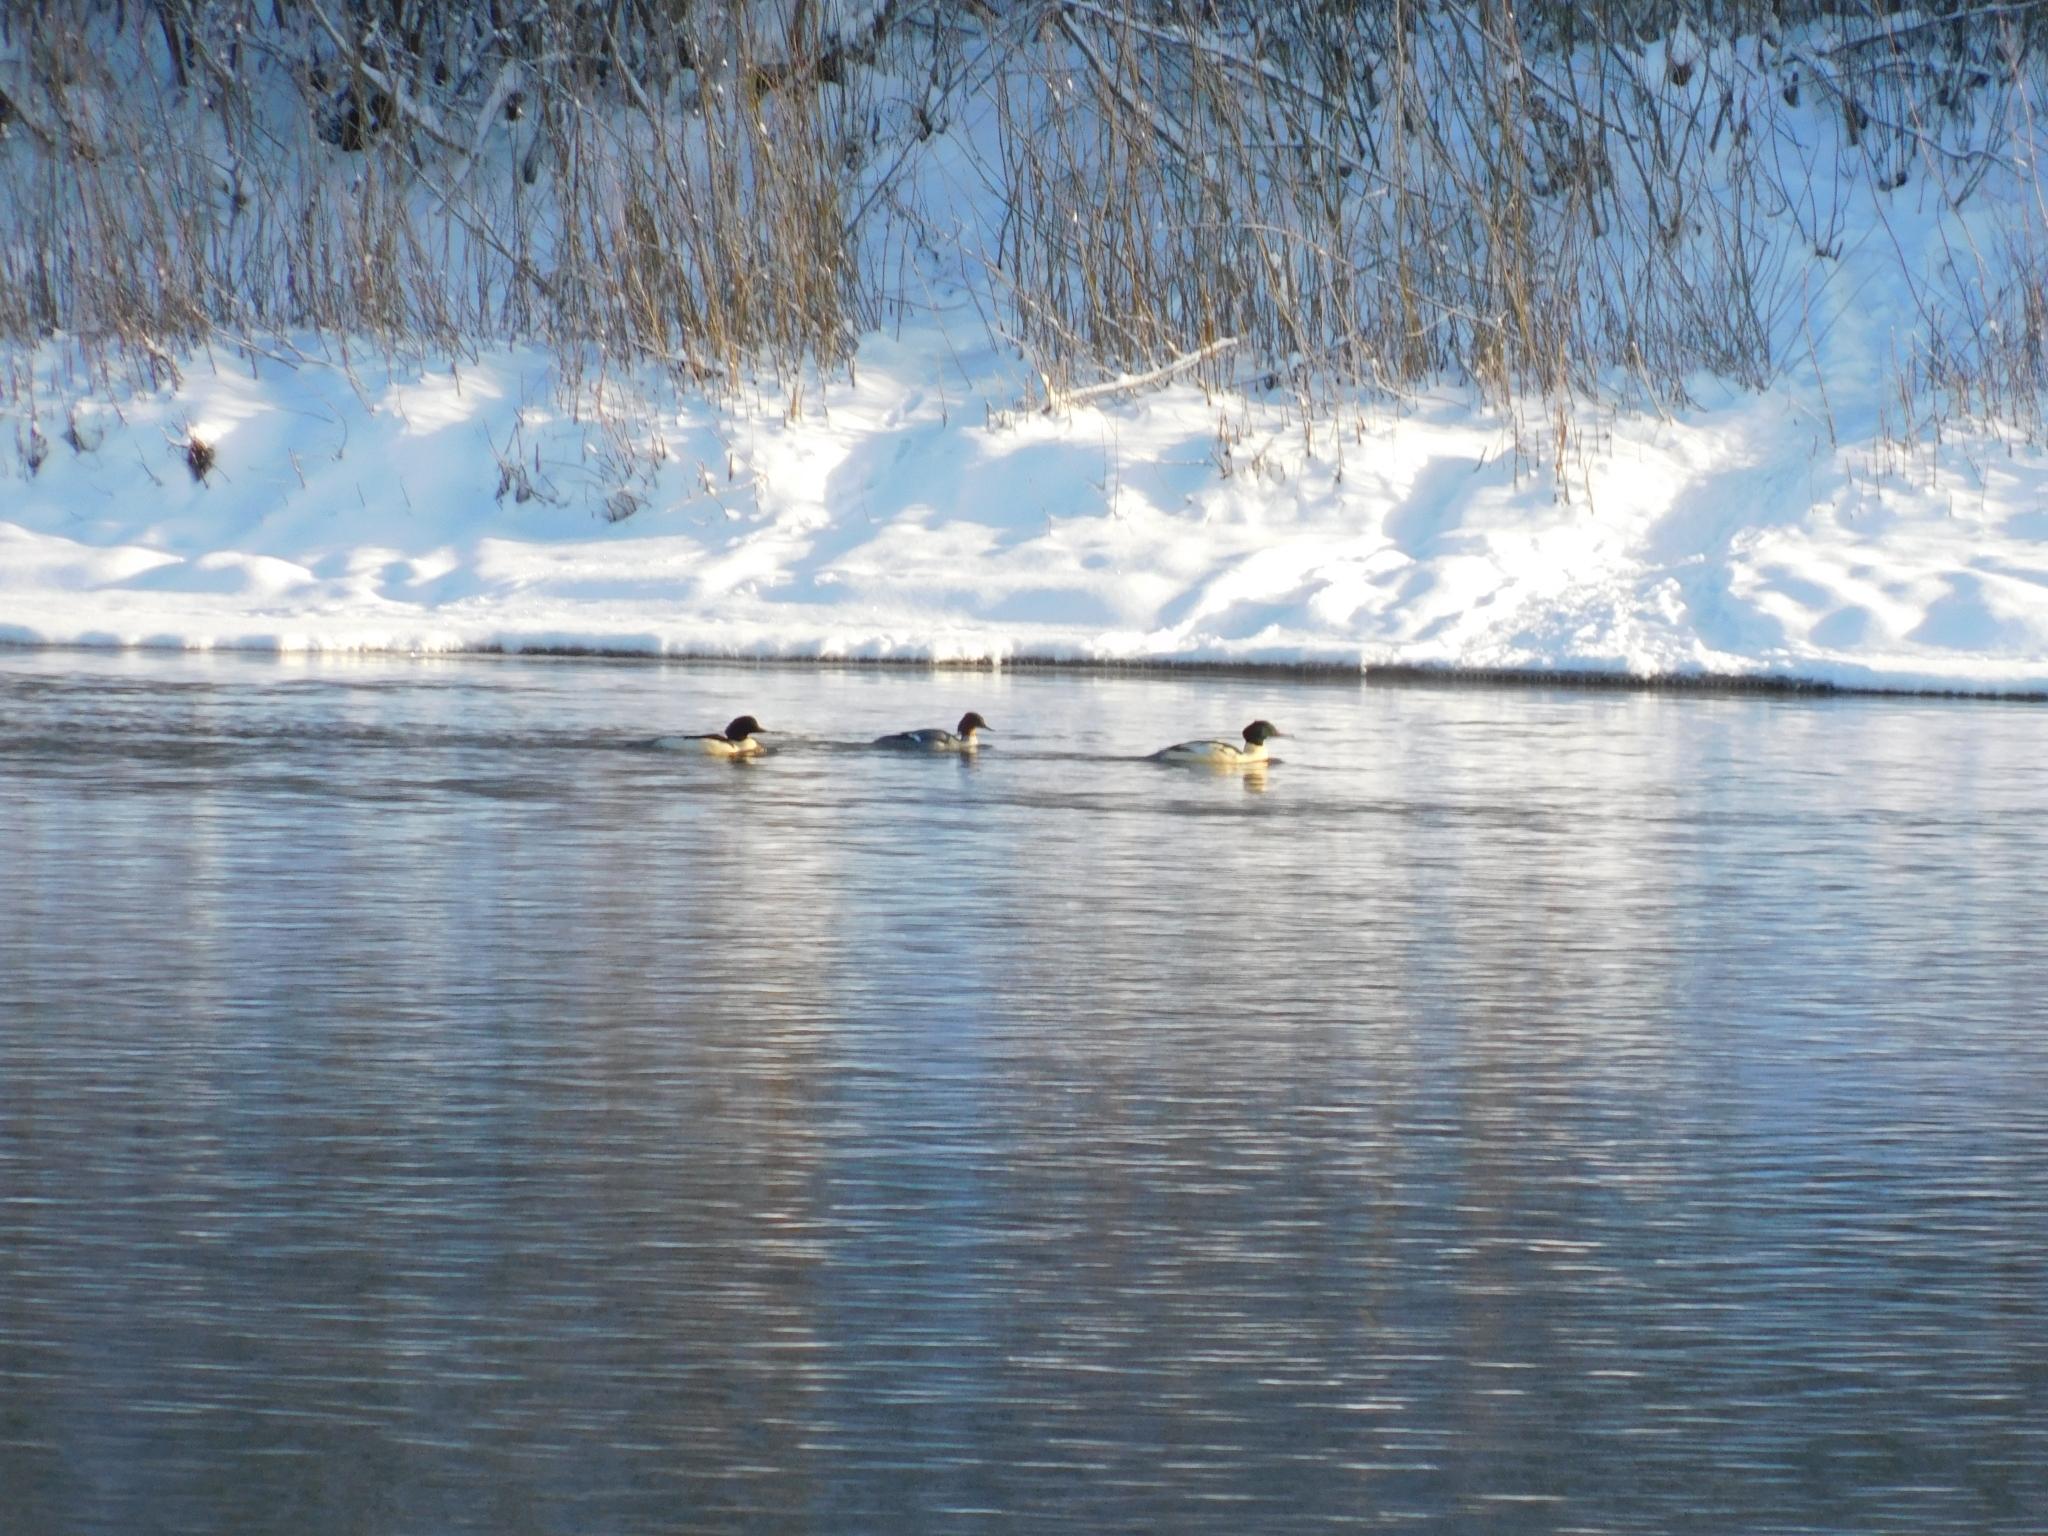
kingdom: Animalia
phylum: Chordata
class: Aves
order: Anseriformes
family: Anatidae
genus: Mergus
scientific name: Mergus merganser
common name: Common merganser
